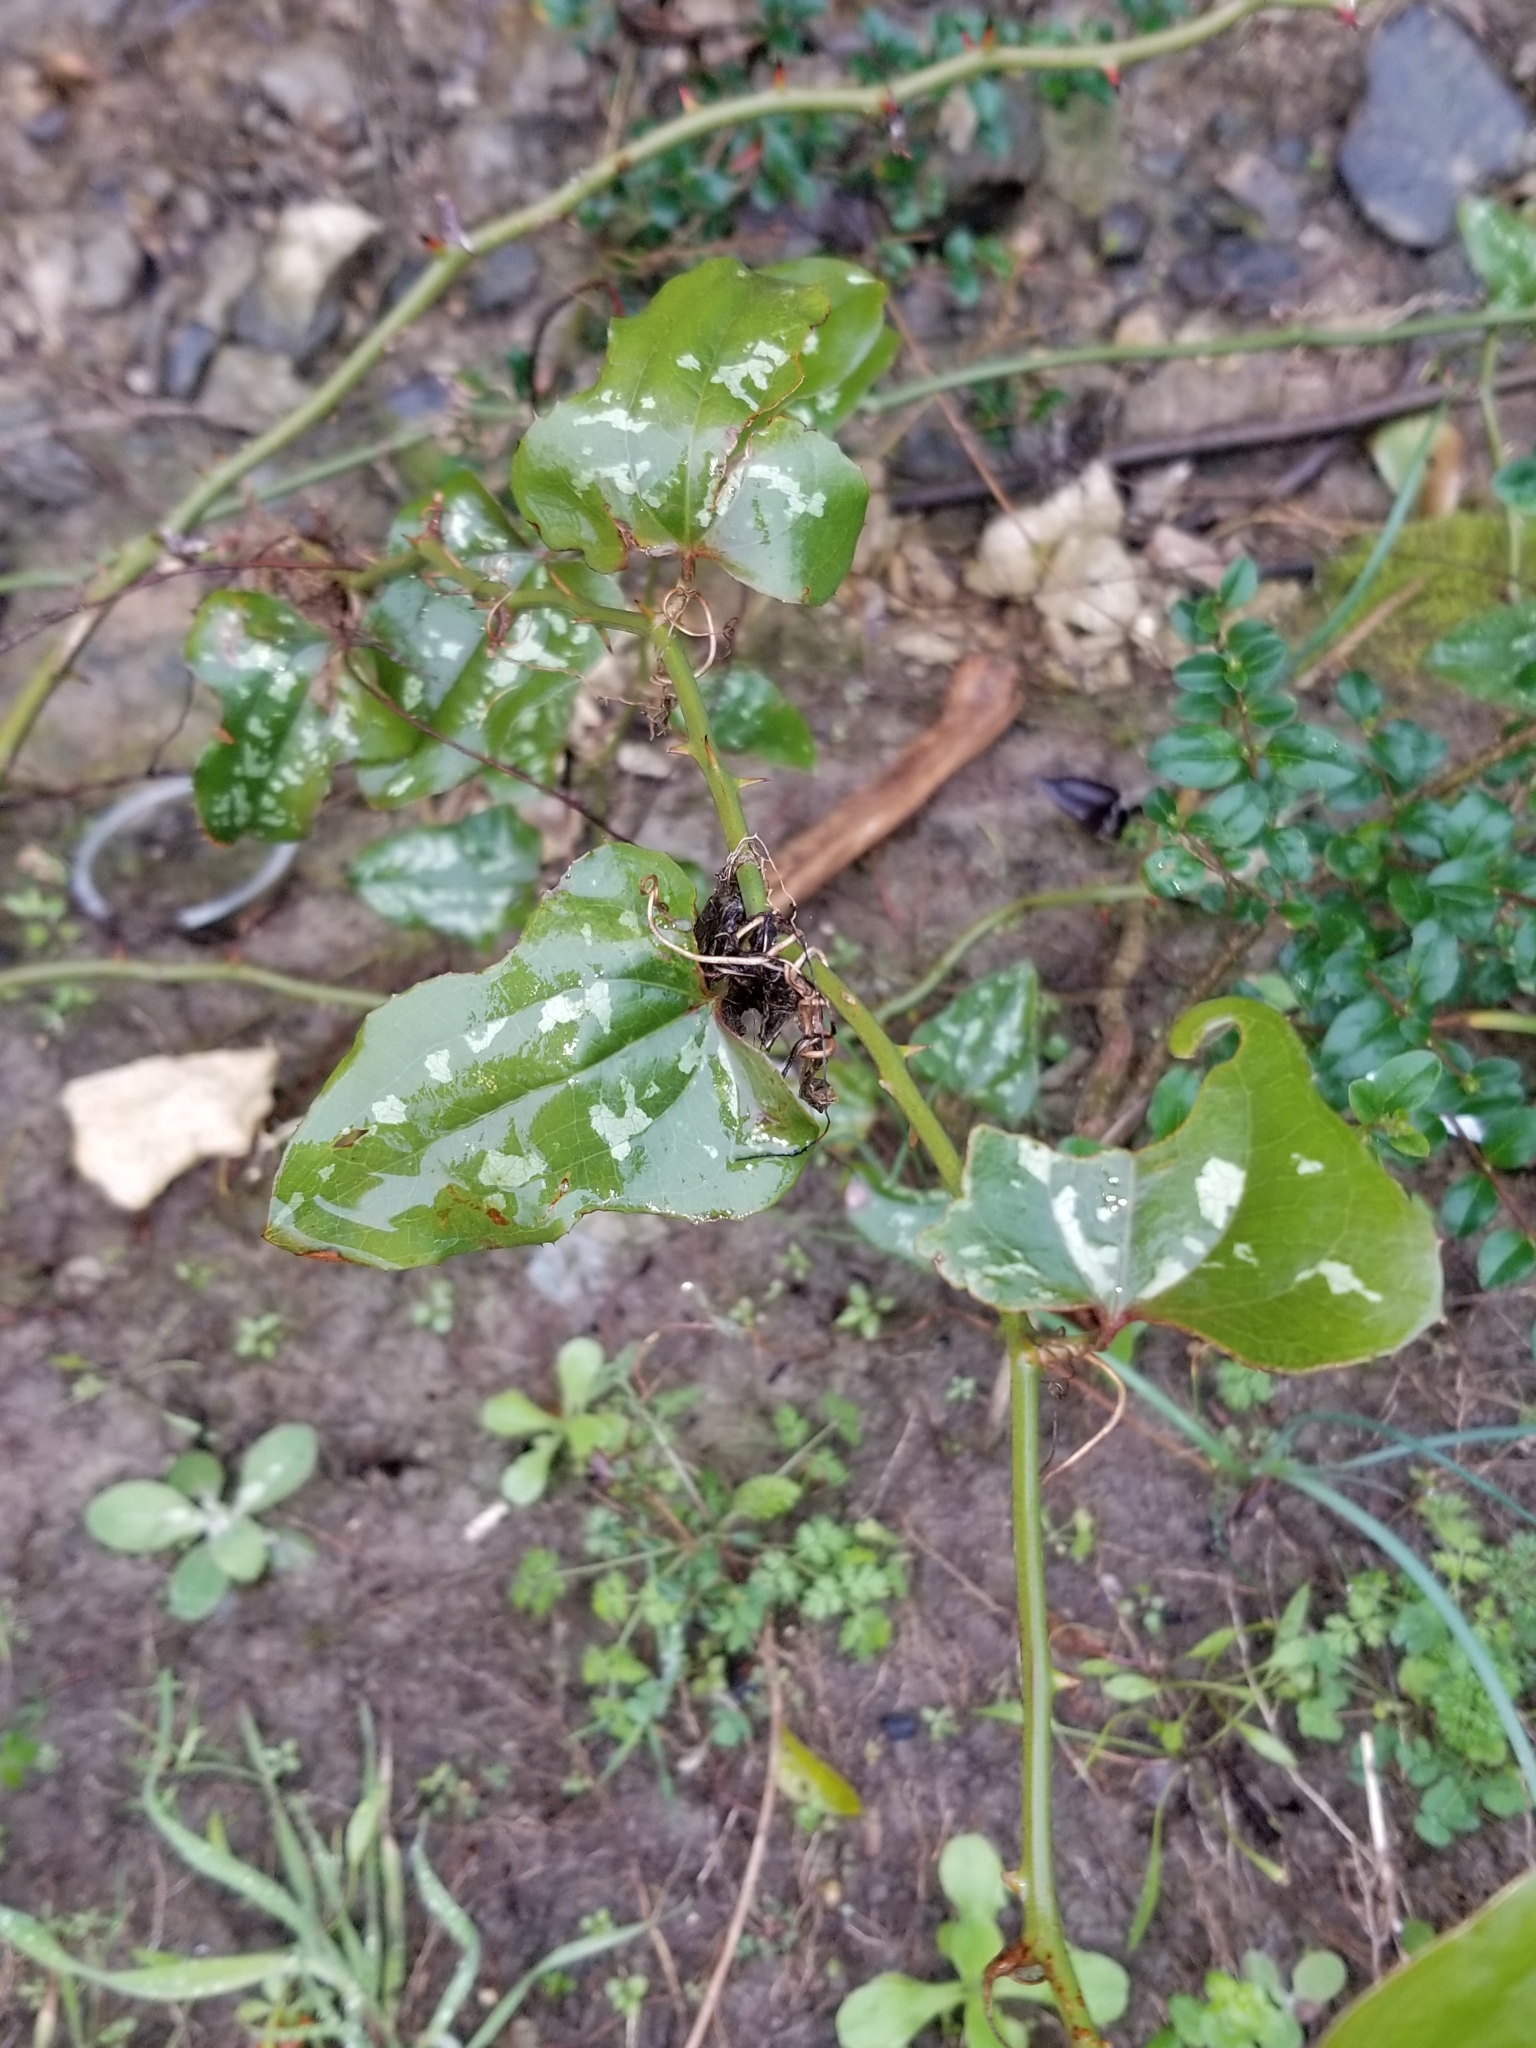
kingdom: Plantae
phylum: Tracheophyta
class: Liliopsida
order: Liliales
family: Smilacaceae
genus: Smilax
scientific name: Smilax bona-nox
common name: Catbrier
